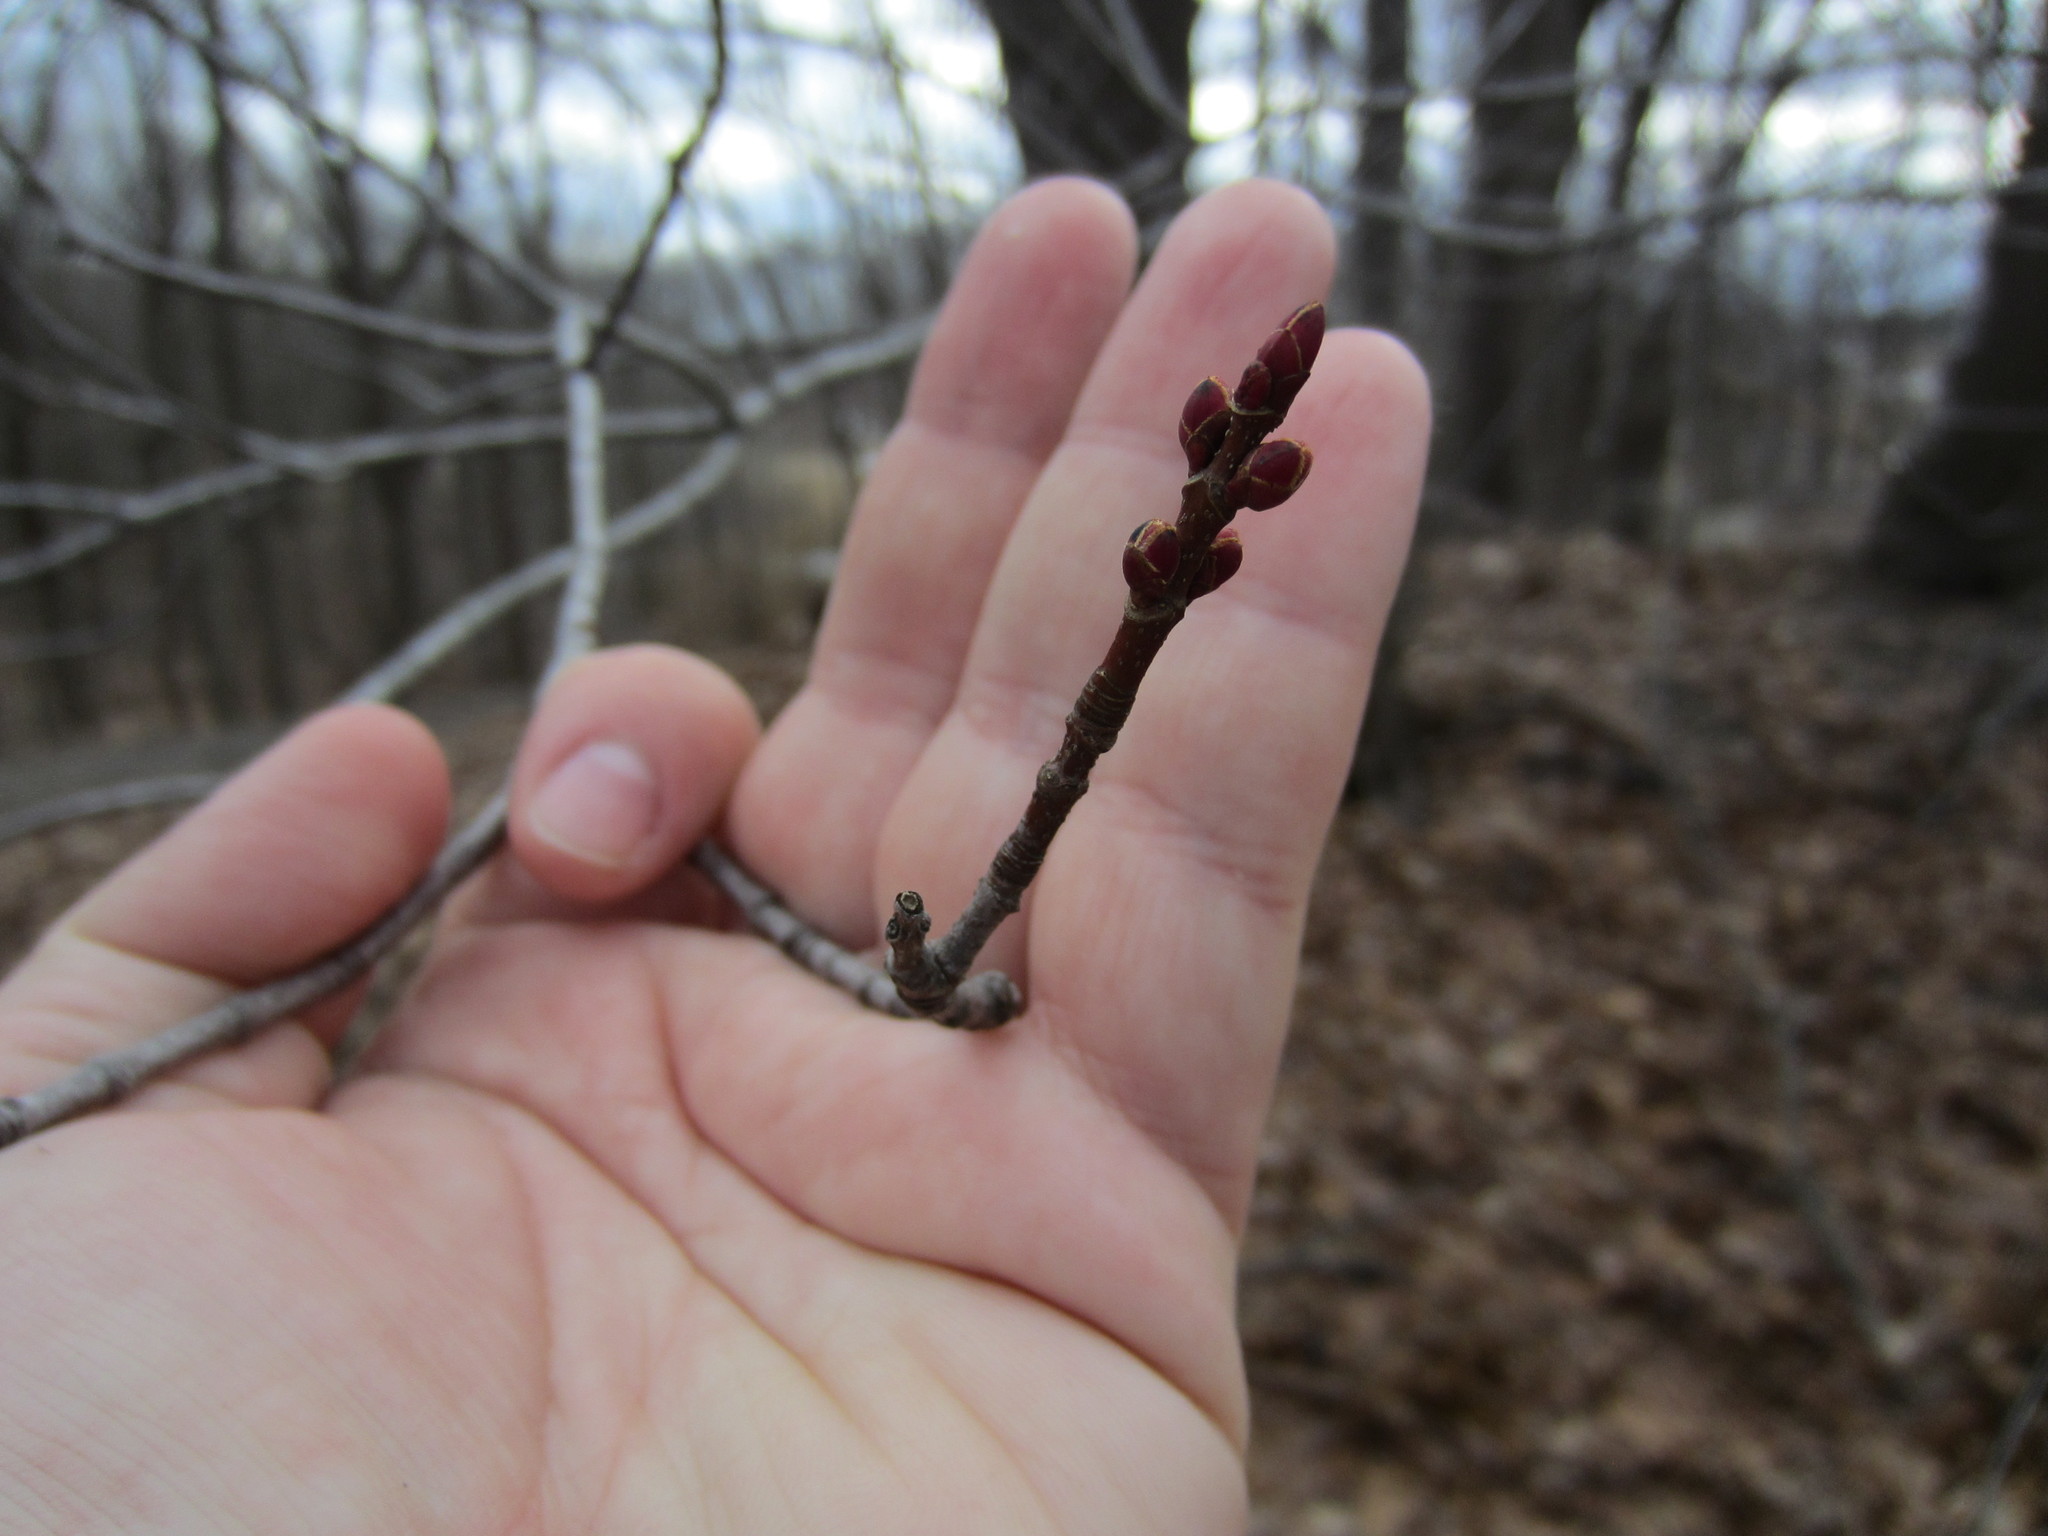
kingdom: Plantae
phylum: Tracheophyta
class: Magnoliopsida
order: Sapindales
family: Sapindaceae
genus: Acer
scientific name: Acer rubrum
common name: Red maple
